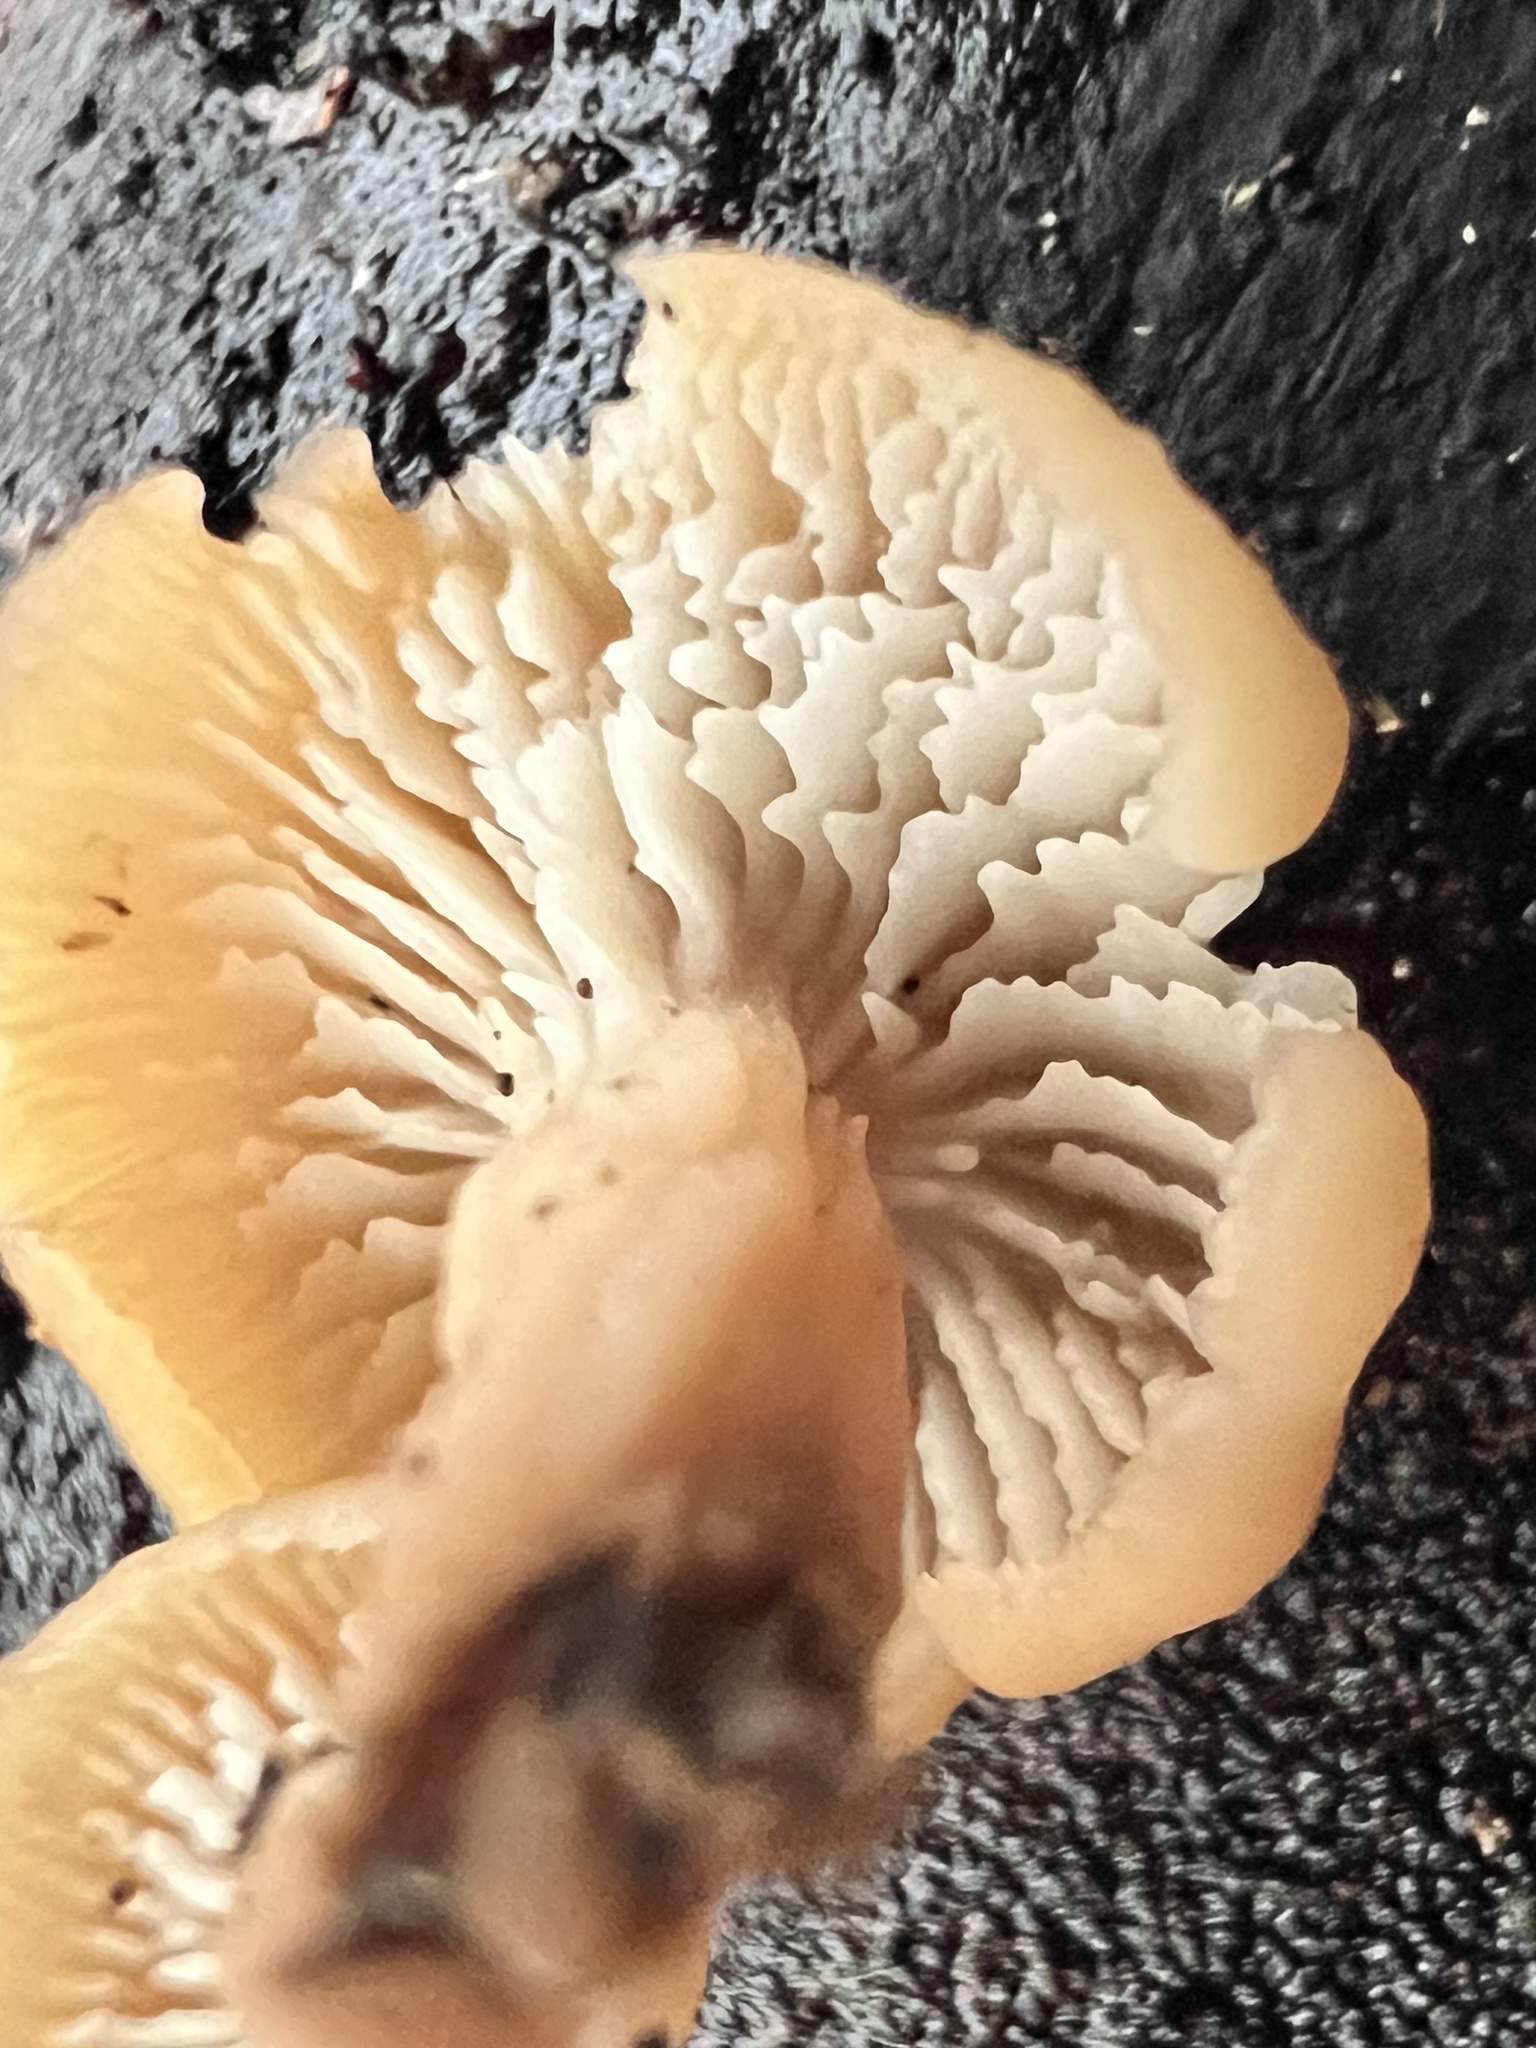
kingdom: Fungi
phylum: Basidiomycota
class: Agaricomycetes
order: Russulales
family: Auriscalpiaceae
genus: Lentinellus
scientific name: Lentinellus micheneri
